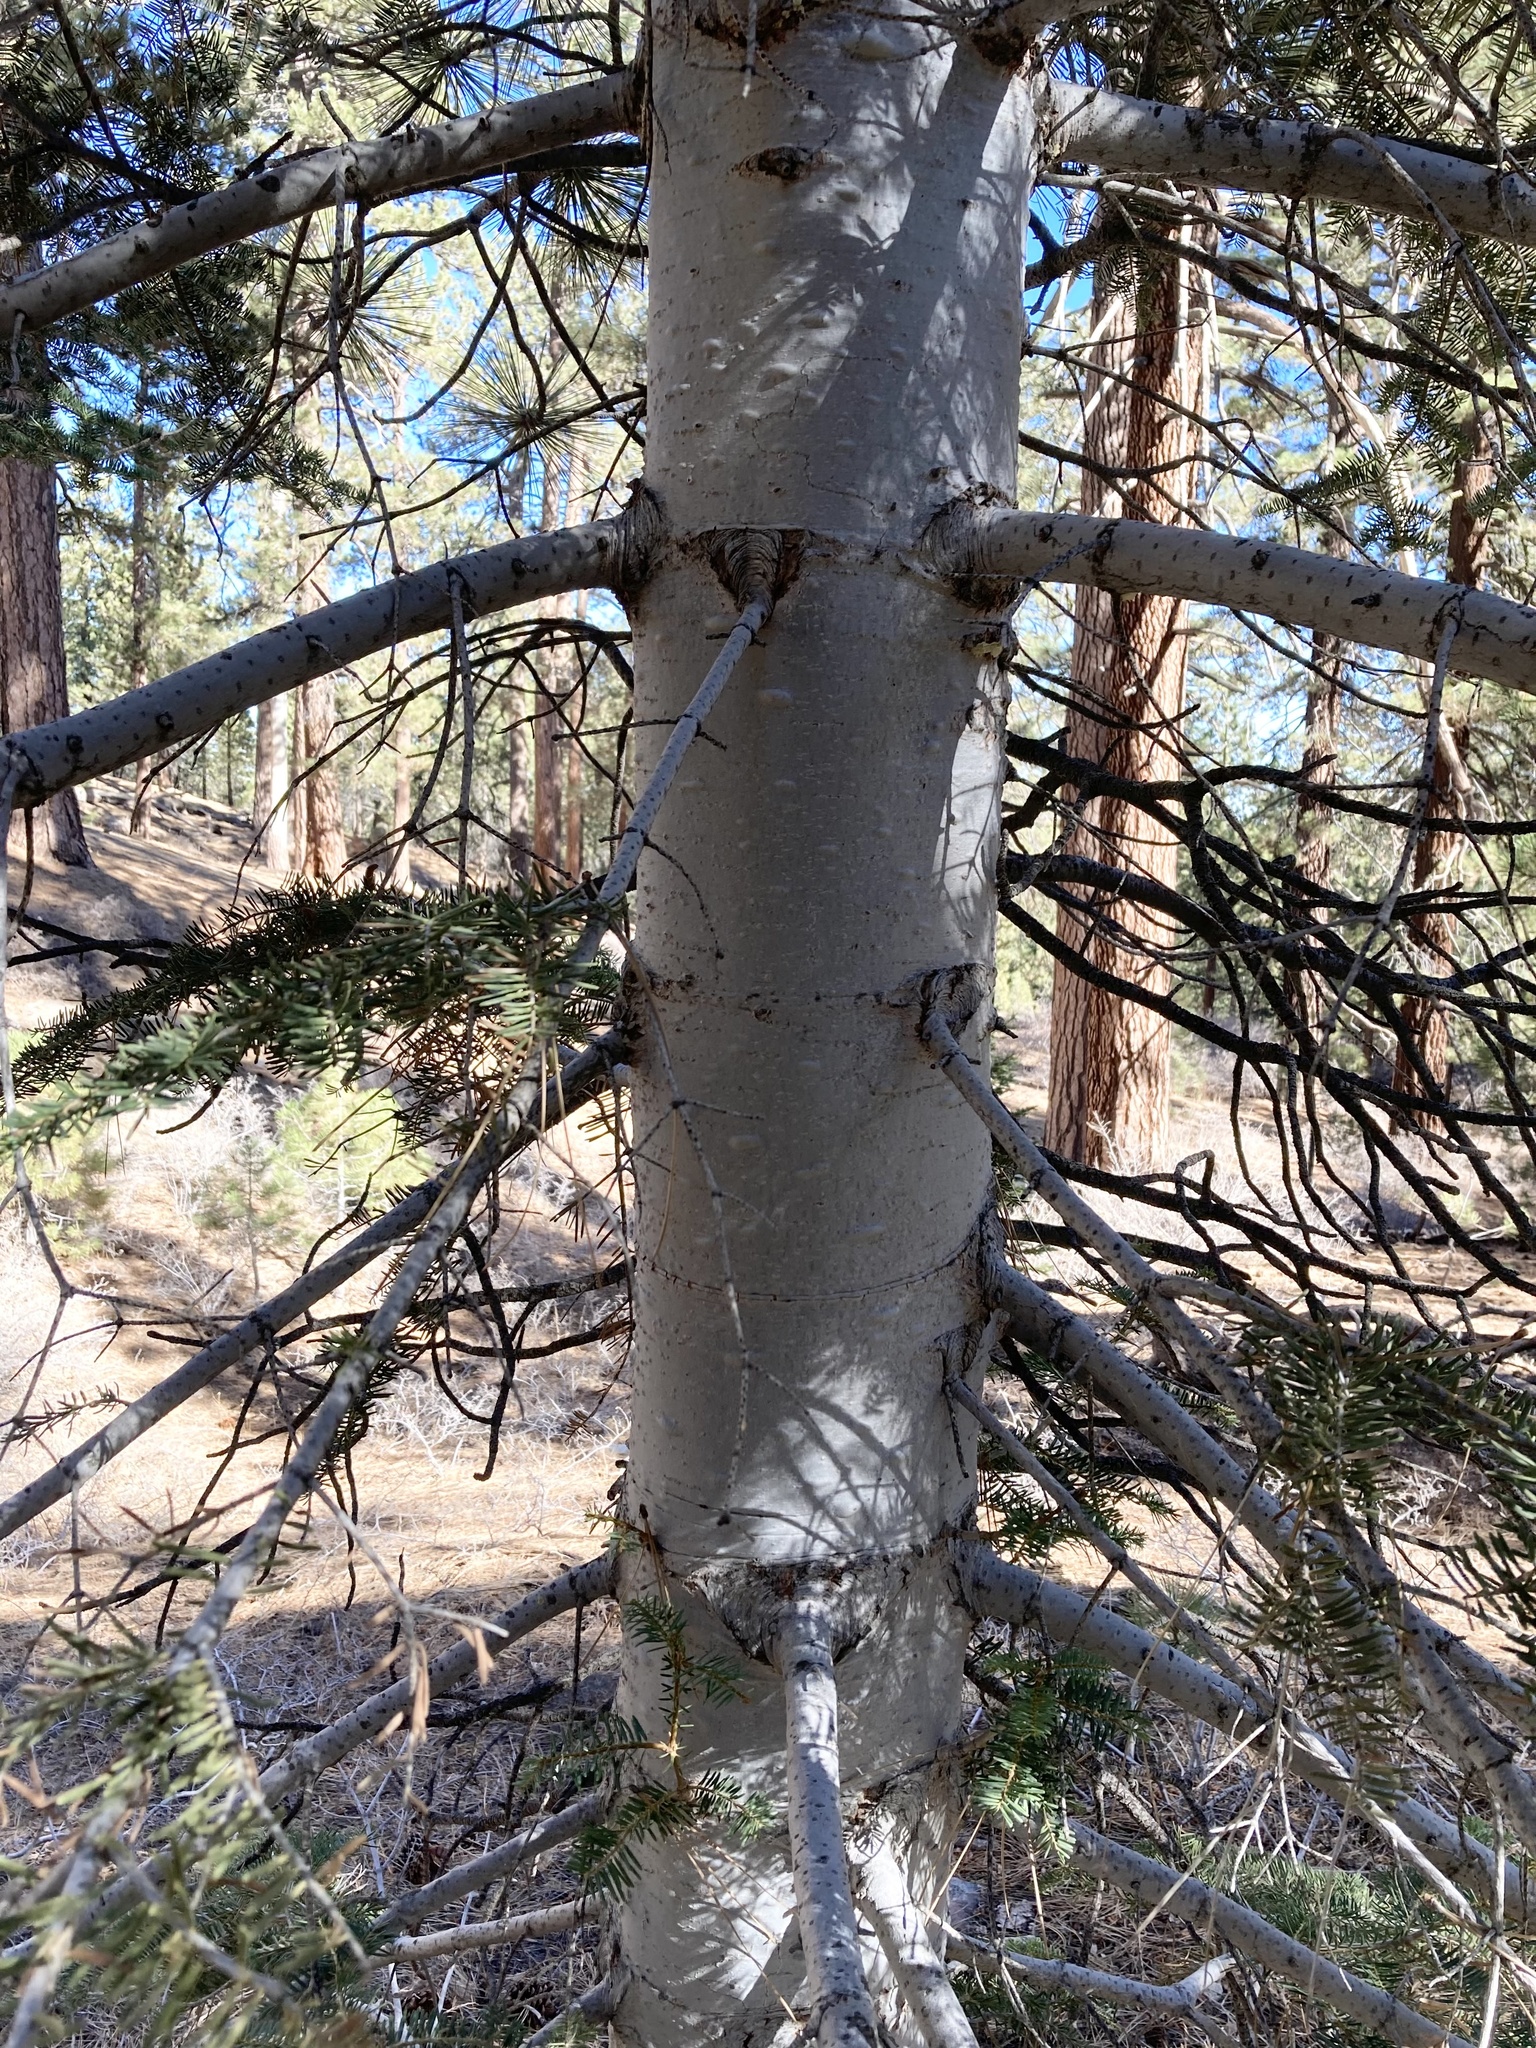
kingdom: Plantae
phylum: Tracheophyta
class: Pinopsida
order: Pinales
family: Pinaceae
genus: Abies
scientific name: Abies concolor
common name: Colorado fir
